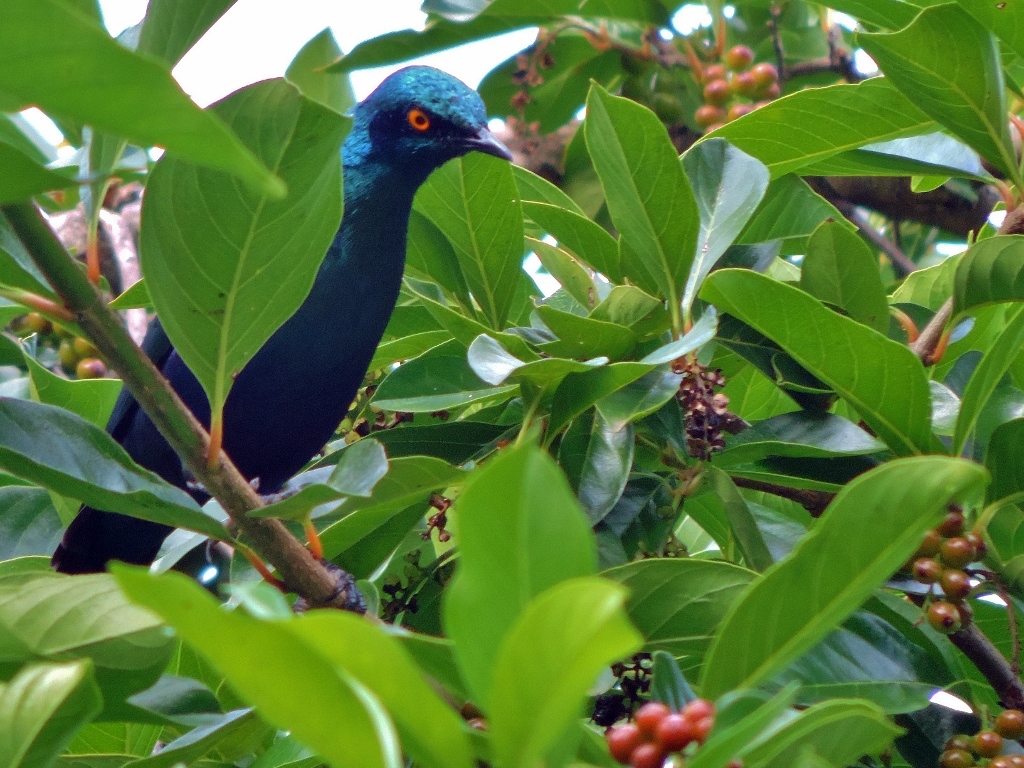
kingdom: Animalia
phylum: Chordata
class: Aves
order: Passeriformes
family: Sturnidae
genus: Lamprotornis
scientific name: Lamprotornis chalybaeus
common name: Greater blue-eared starling
